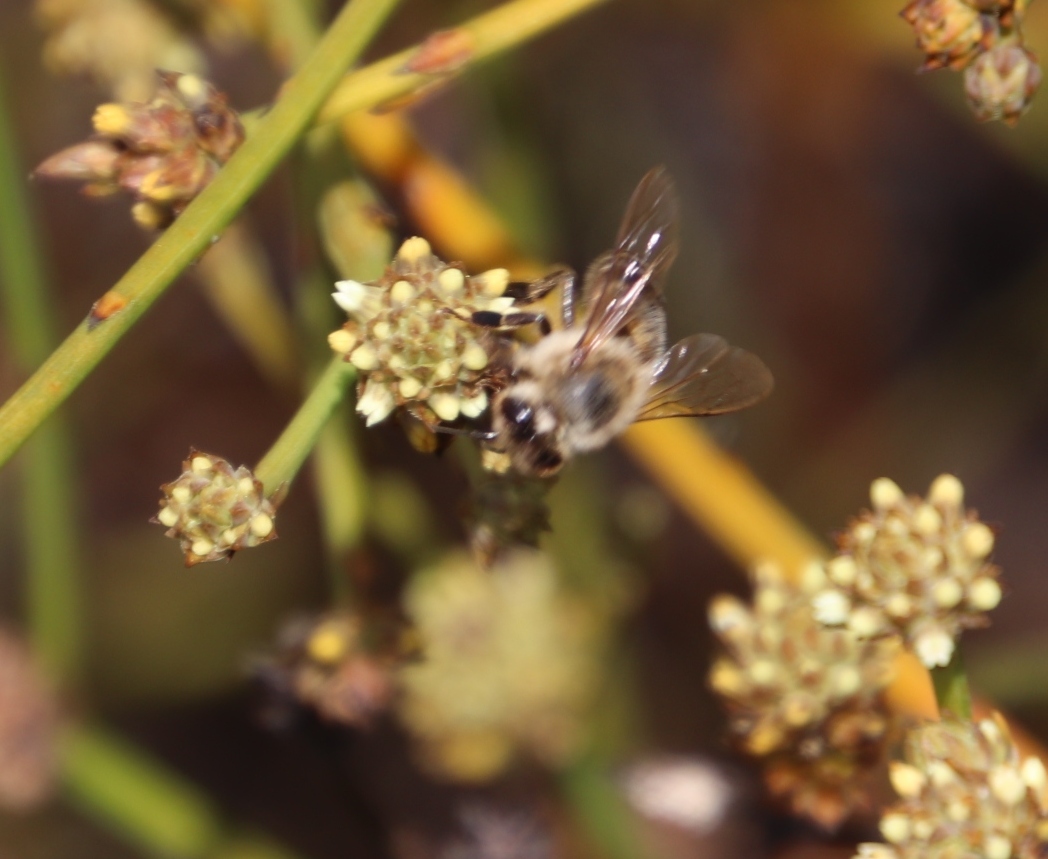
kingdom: Plantae
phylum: Tracheophyta
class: Magnoliopsida
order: Santalales
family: Thesiaceae
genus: Thesium
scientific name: Thesium aggregatum
